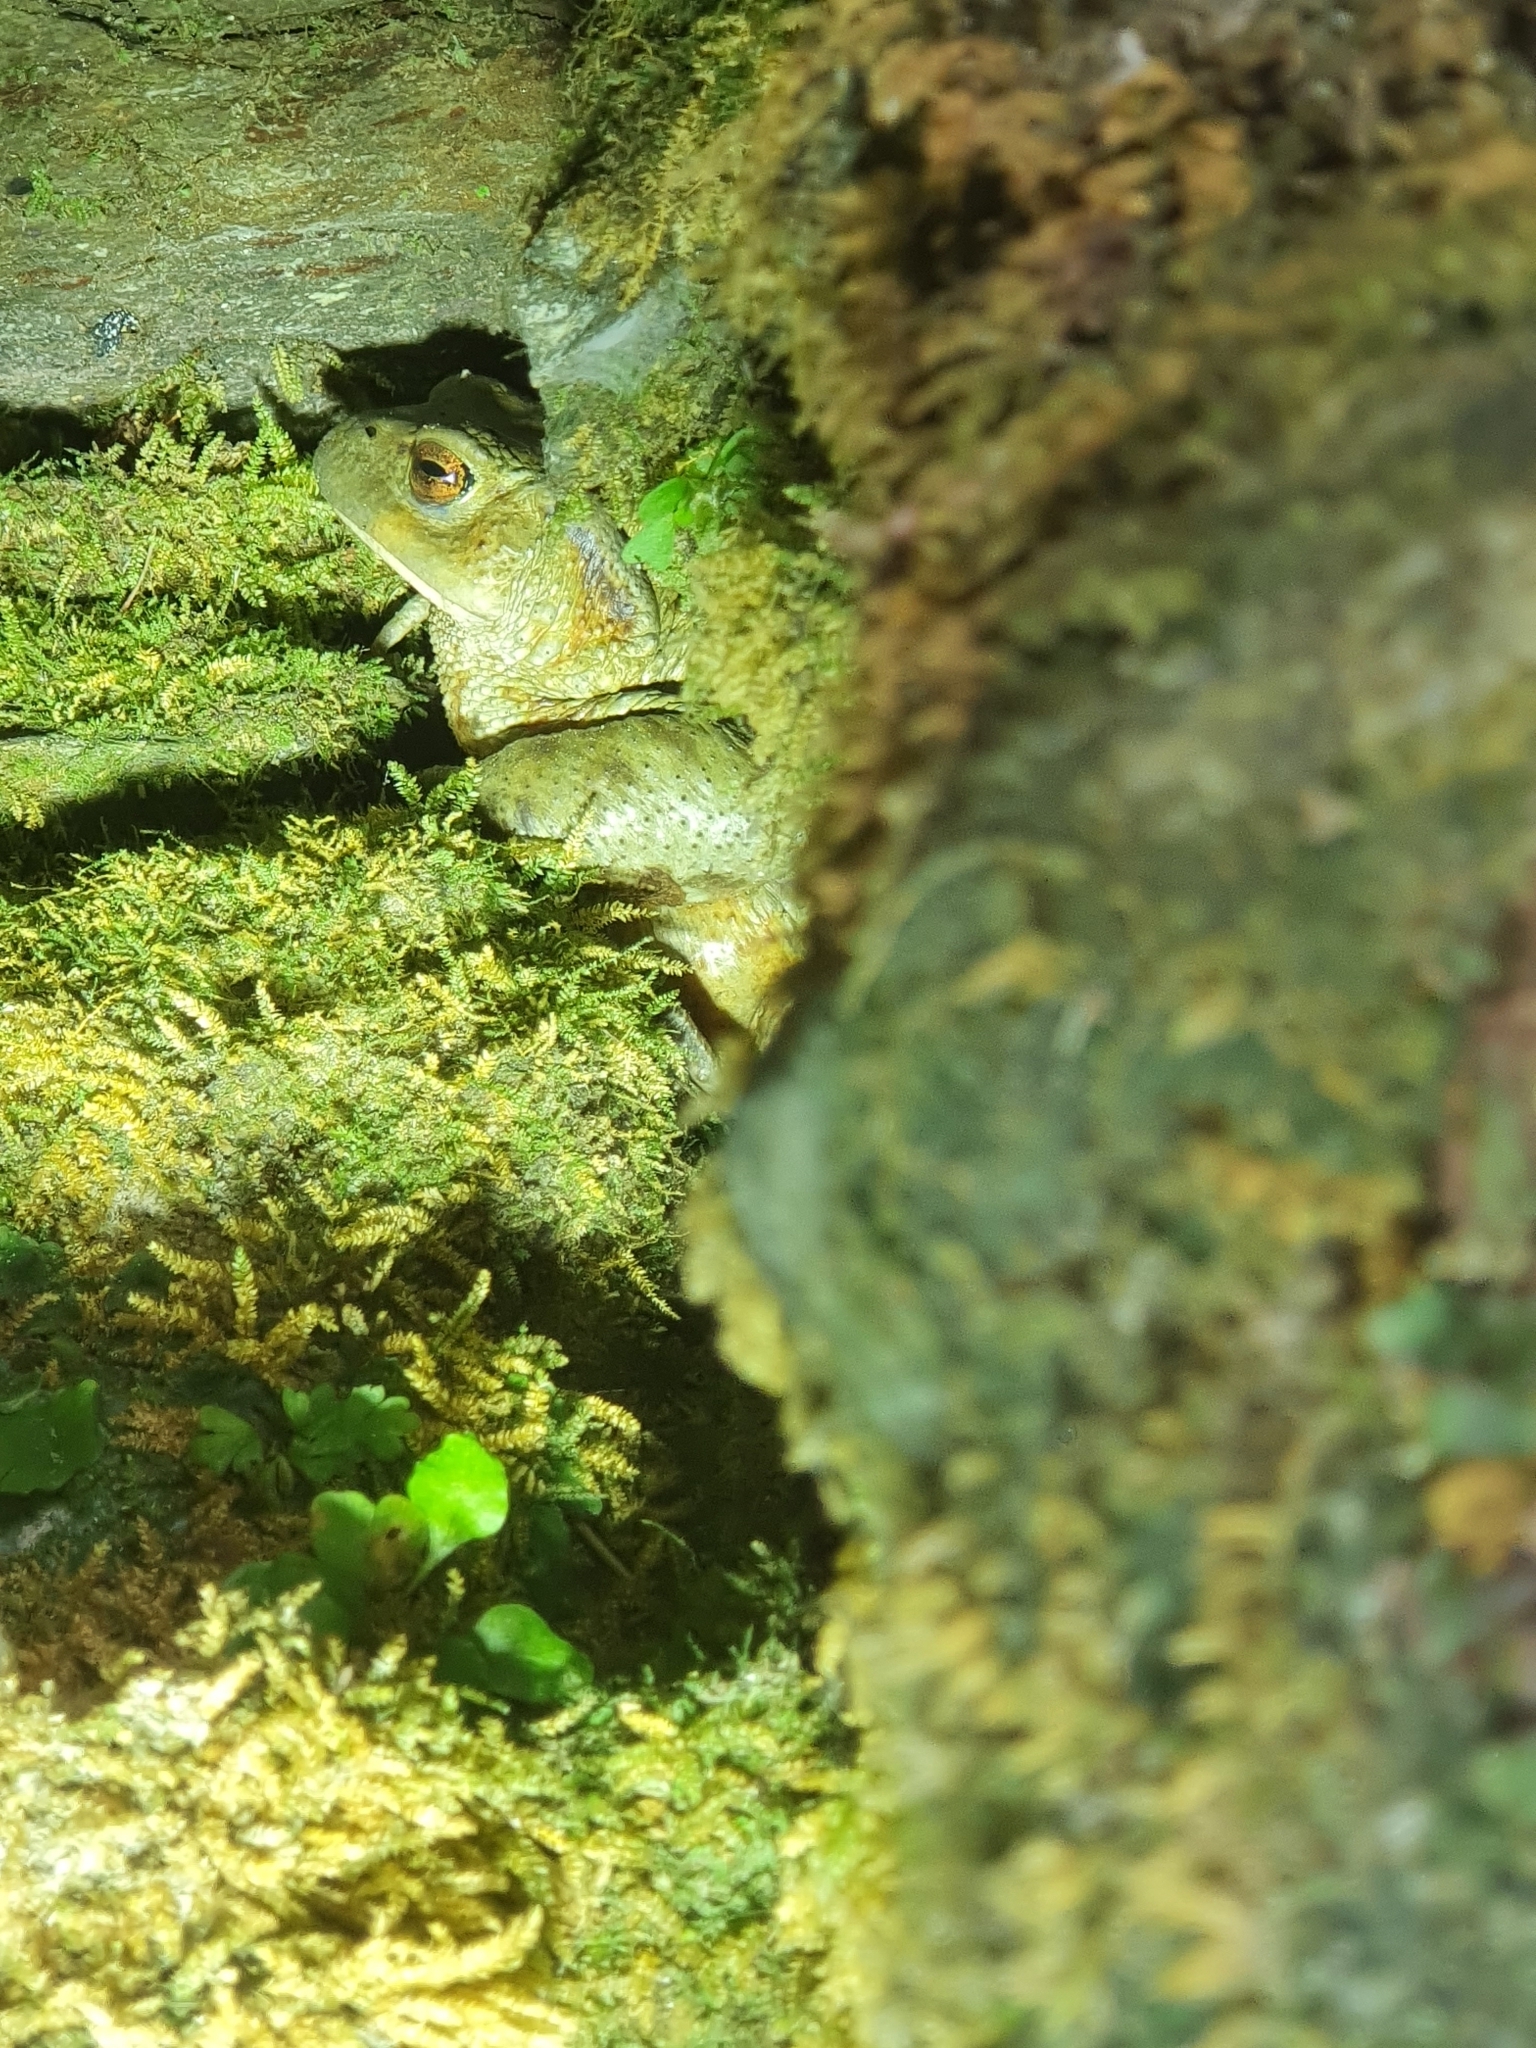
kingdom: Animalia
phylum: Chordata
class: Amphibia
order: Anura
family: Bufonidae
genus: Bufo
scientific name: Bufo bufo
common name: Common toad
